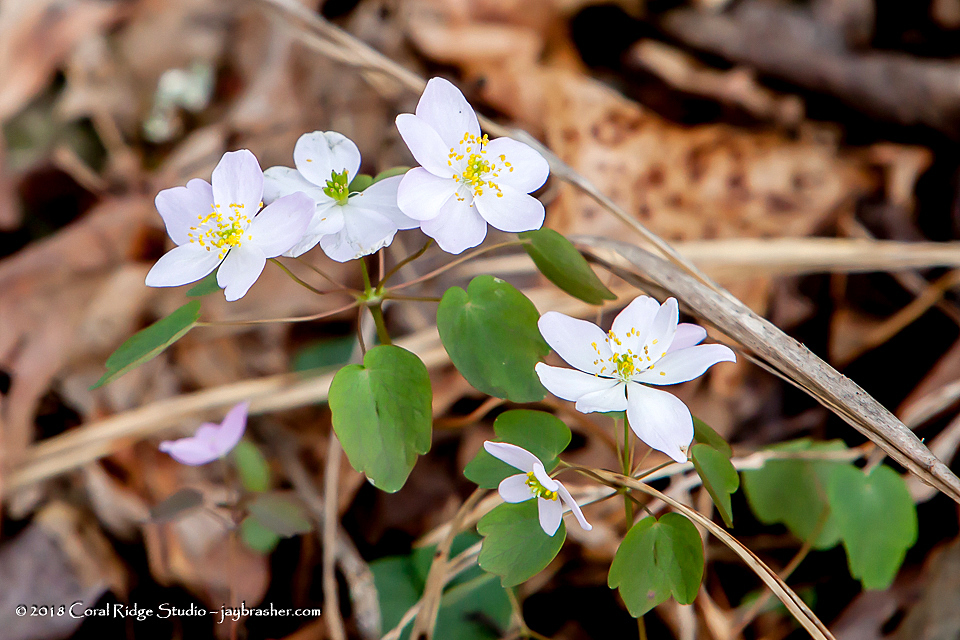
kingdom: Plantae
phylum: Tracheophyta
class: Magnoliopsida
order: Ranunculales
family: Ranunculaceae
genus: Thalictrum
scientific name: Thalictrum thalictroides
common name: Rue-anemone
